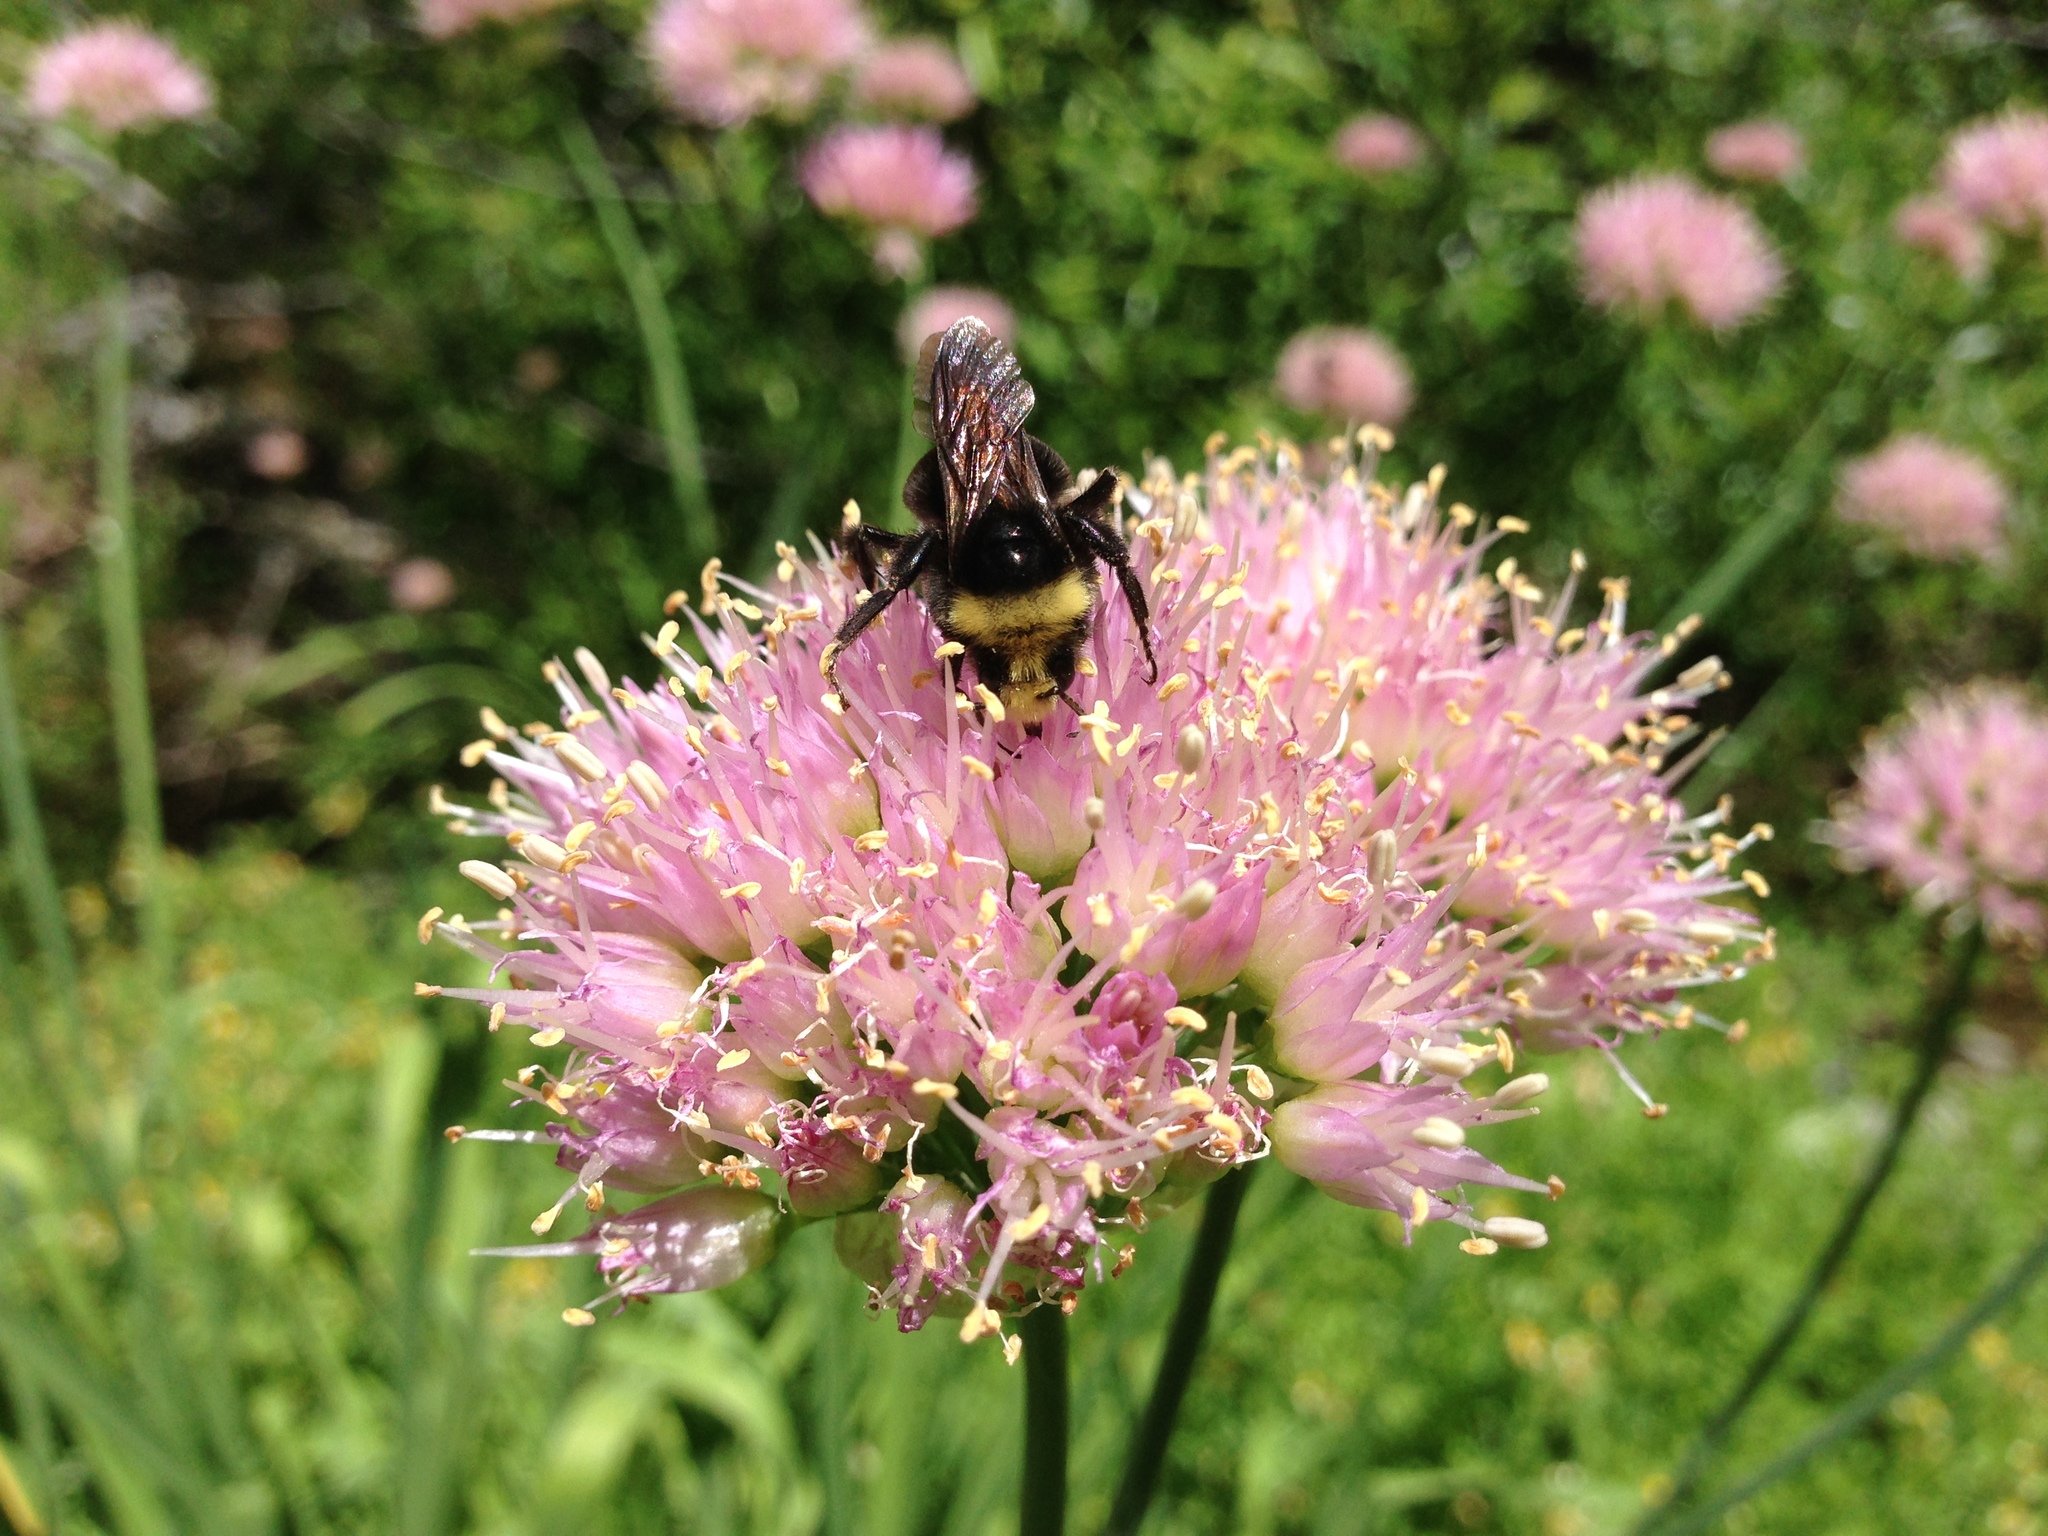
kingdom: Animalia
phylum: Arthropoda
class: Insecta
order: Hymenoptera
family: Apidae
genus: Bombus
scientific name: Bombus vosnesenskii
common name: Vosnesensky bumble bee
